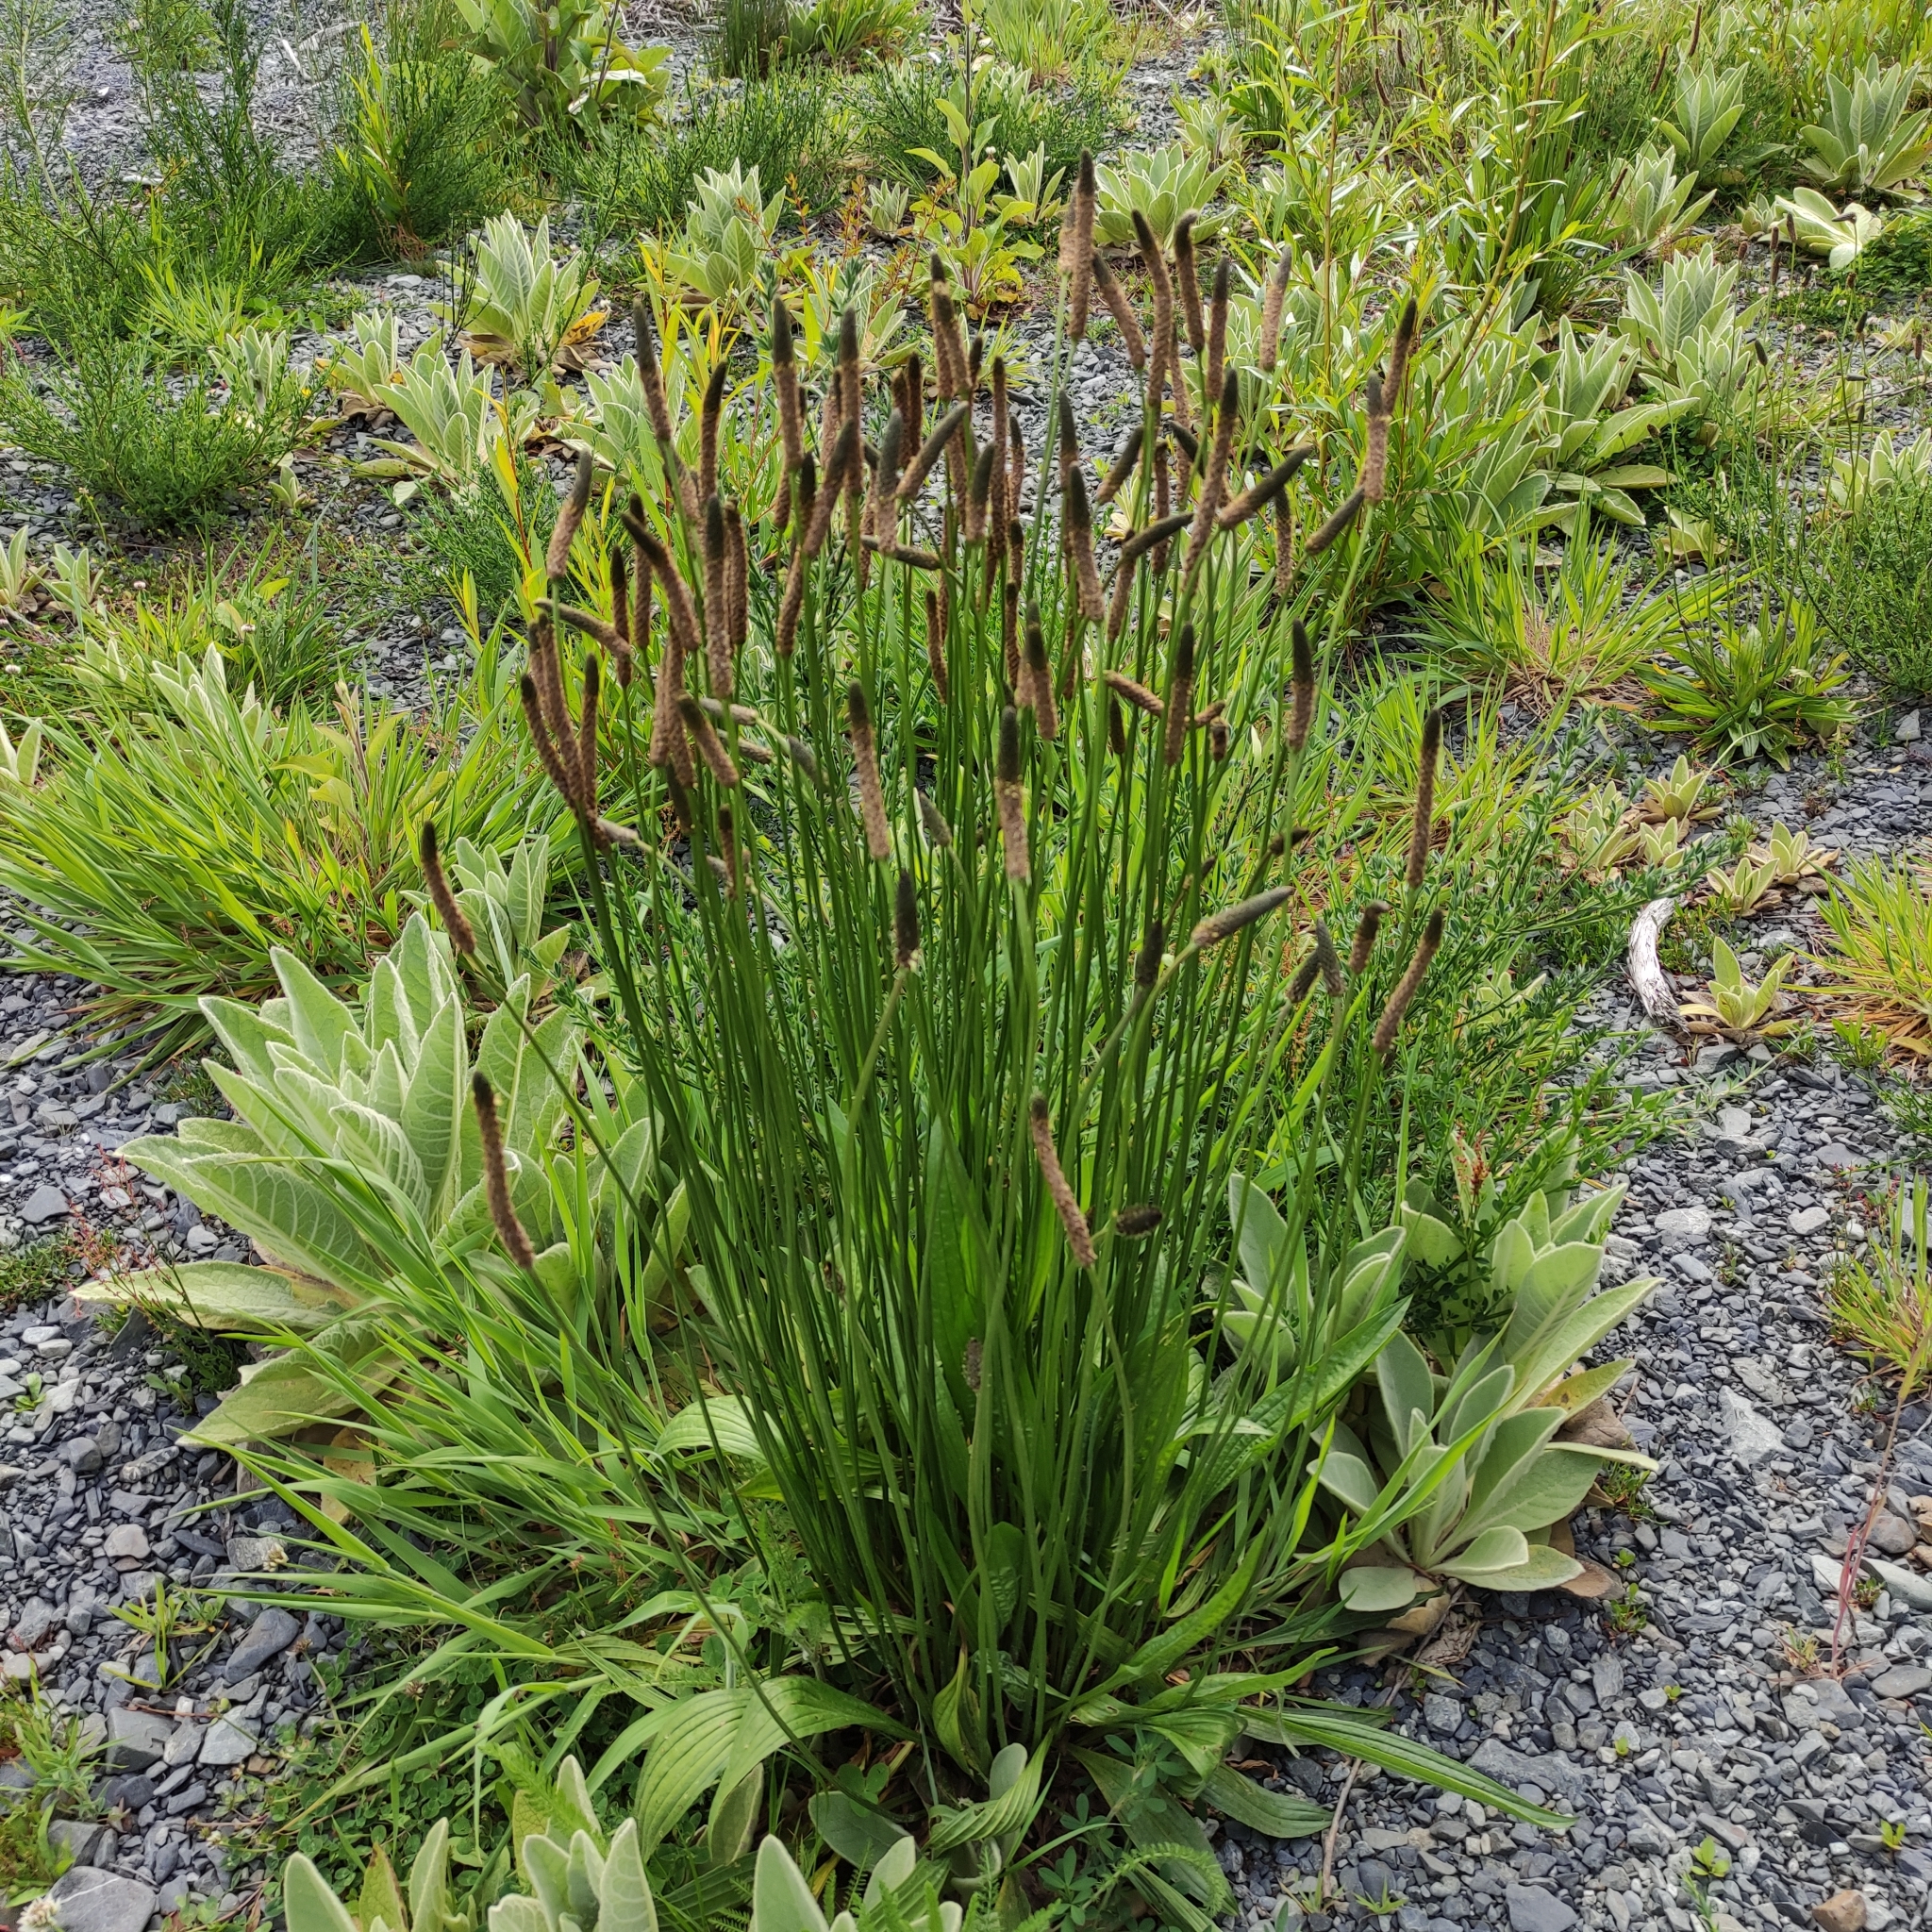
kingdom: Plantae
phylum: Tracheophyta
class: Magnoliopsida
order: Lamiales
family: Plantaginaceae
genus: Plantago
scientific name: Plantago lanceolata
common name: Ribwort plantain
